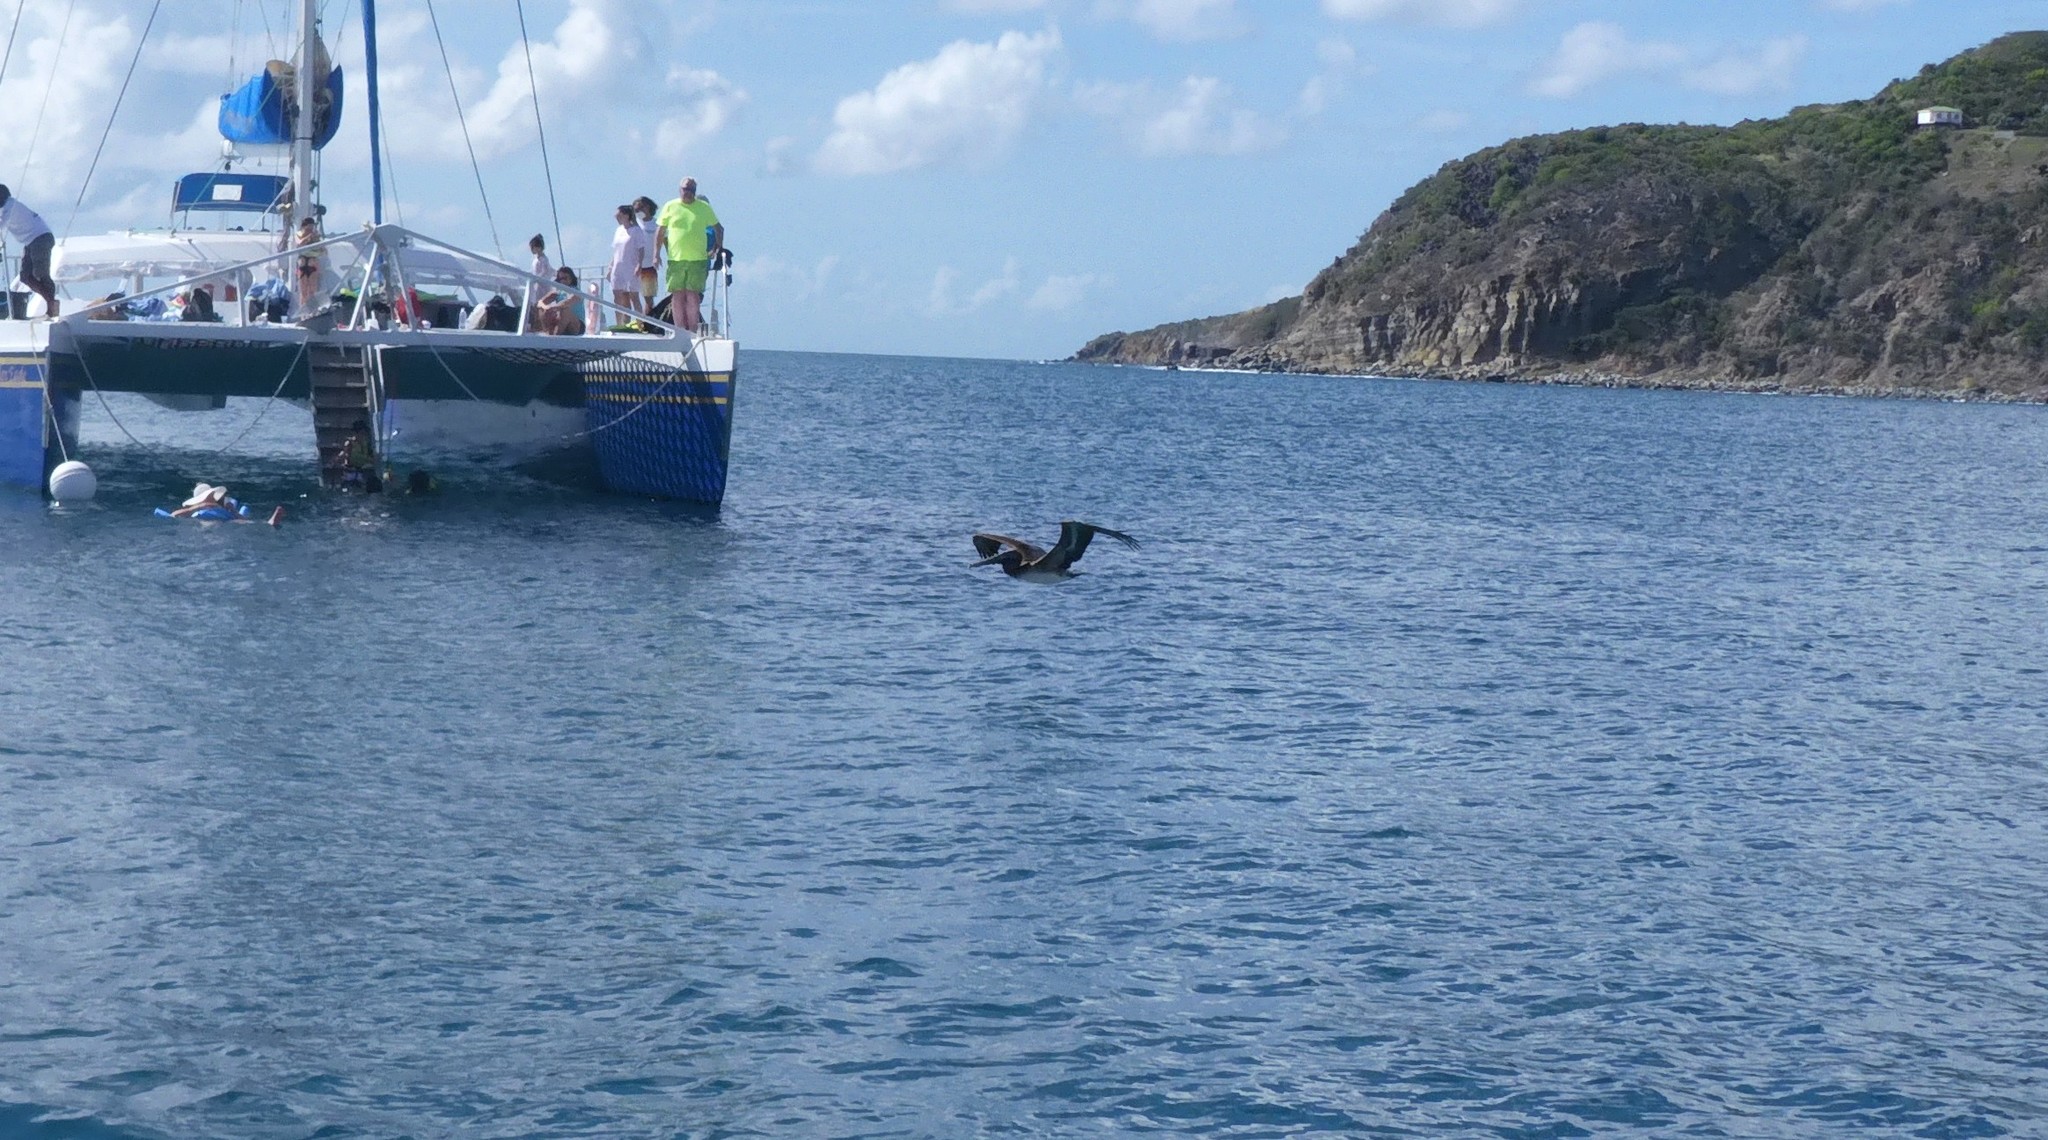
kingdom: Animalia
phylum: Chordata
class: Aves
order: Pelecaniformes
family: Pelecanidae
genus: Pelecanus
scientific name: Pelecanus occidentalis
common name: Brown pelican
